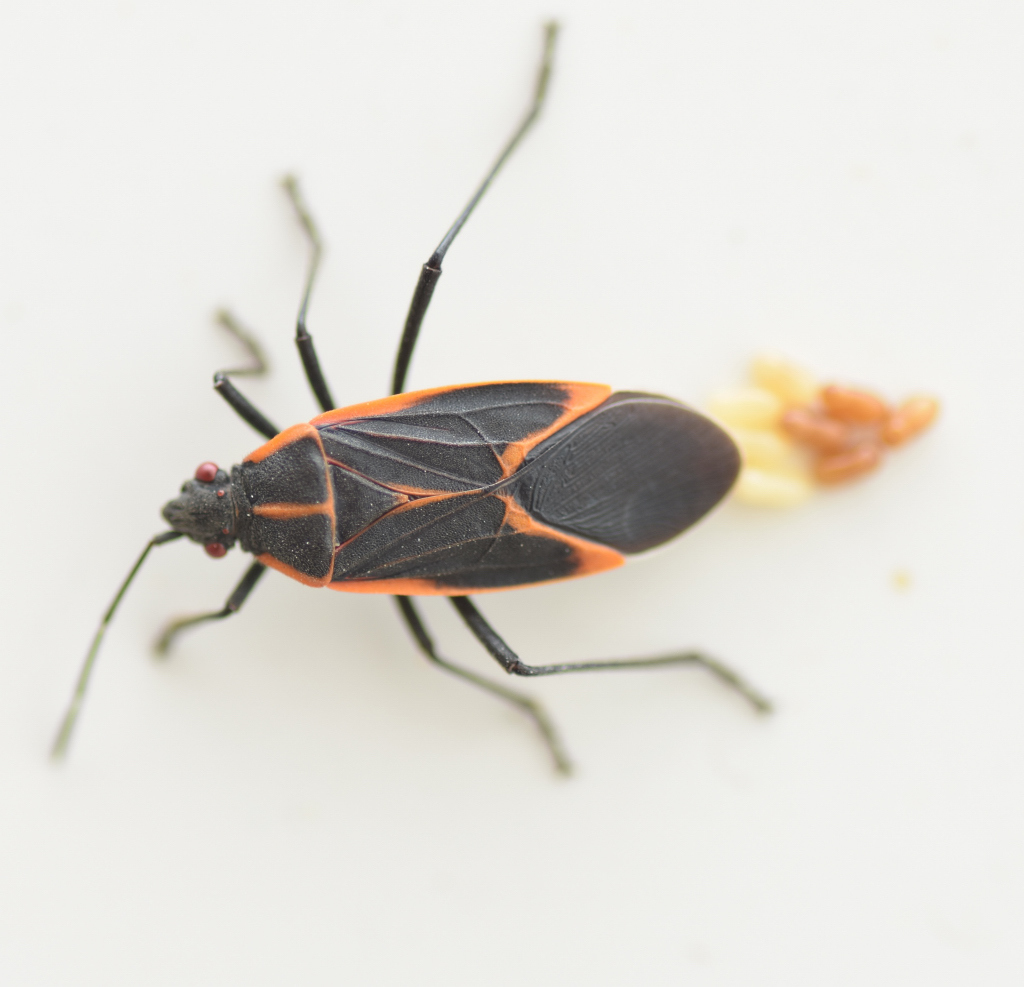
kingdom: Animalia
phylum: Arthropoda
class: Insecta
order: Hemiptera
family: Rhopalidae
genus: Boisea
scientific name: Boisea trivittata
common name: Boxelder bug
